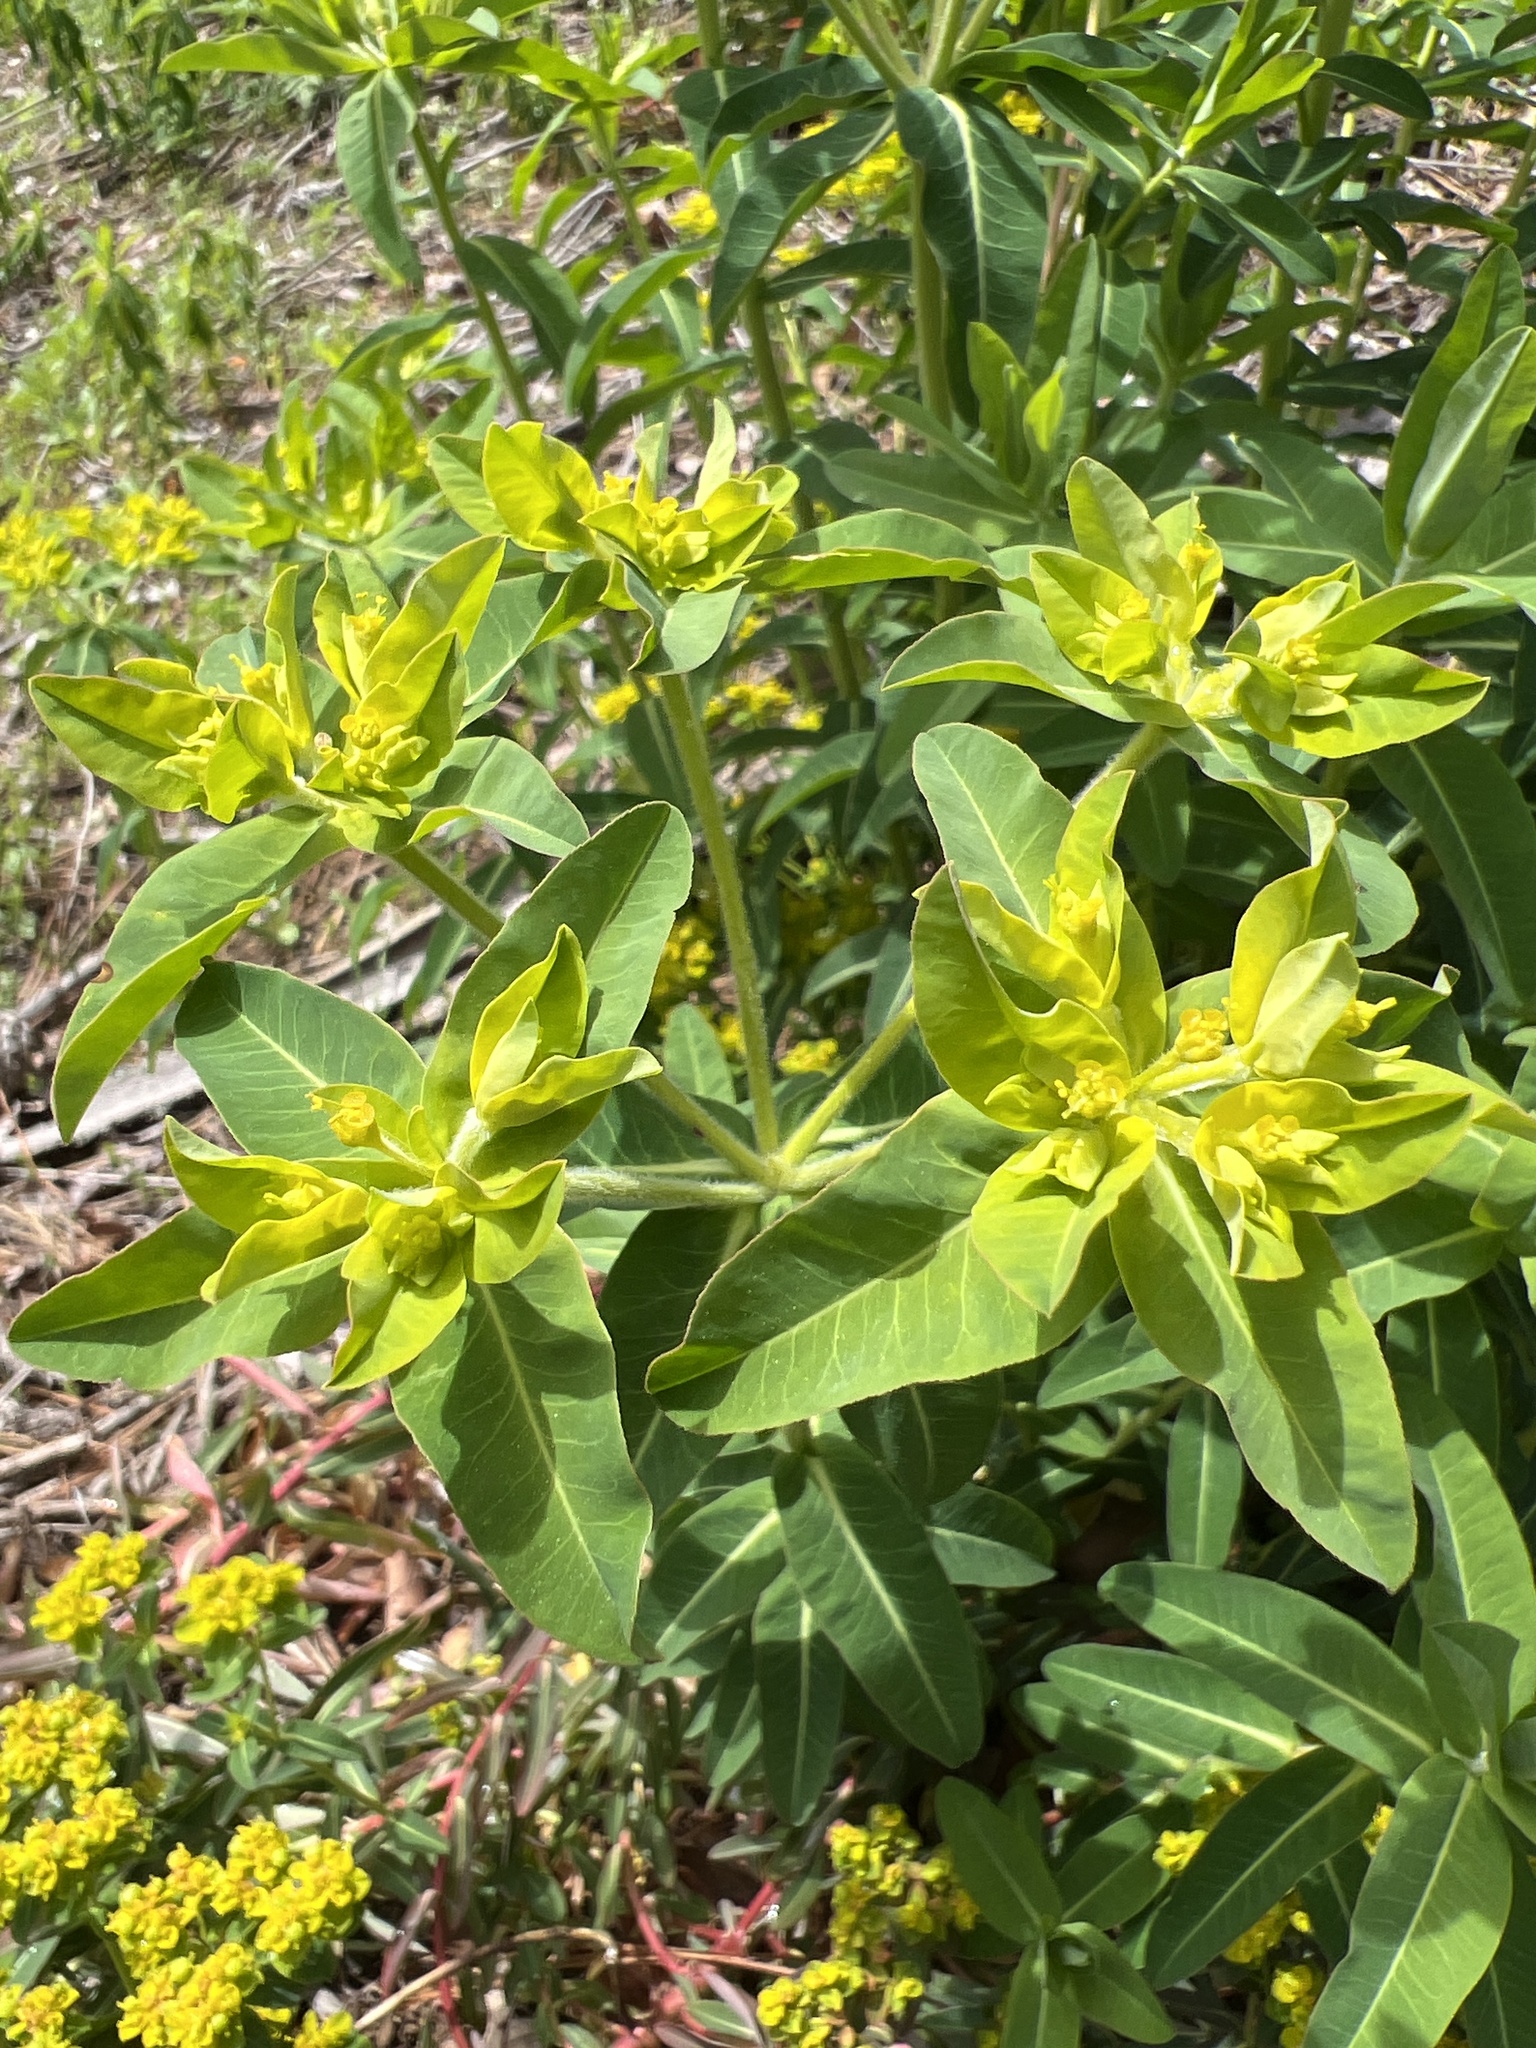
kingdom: Plantae
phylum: Tracheophyta
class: Magnoliopsida
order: Malpighiales
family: Euphorbiaceae
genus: Euphorbia
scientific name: Euphorbia oblongata
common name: Balkan spurge
